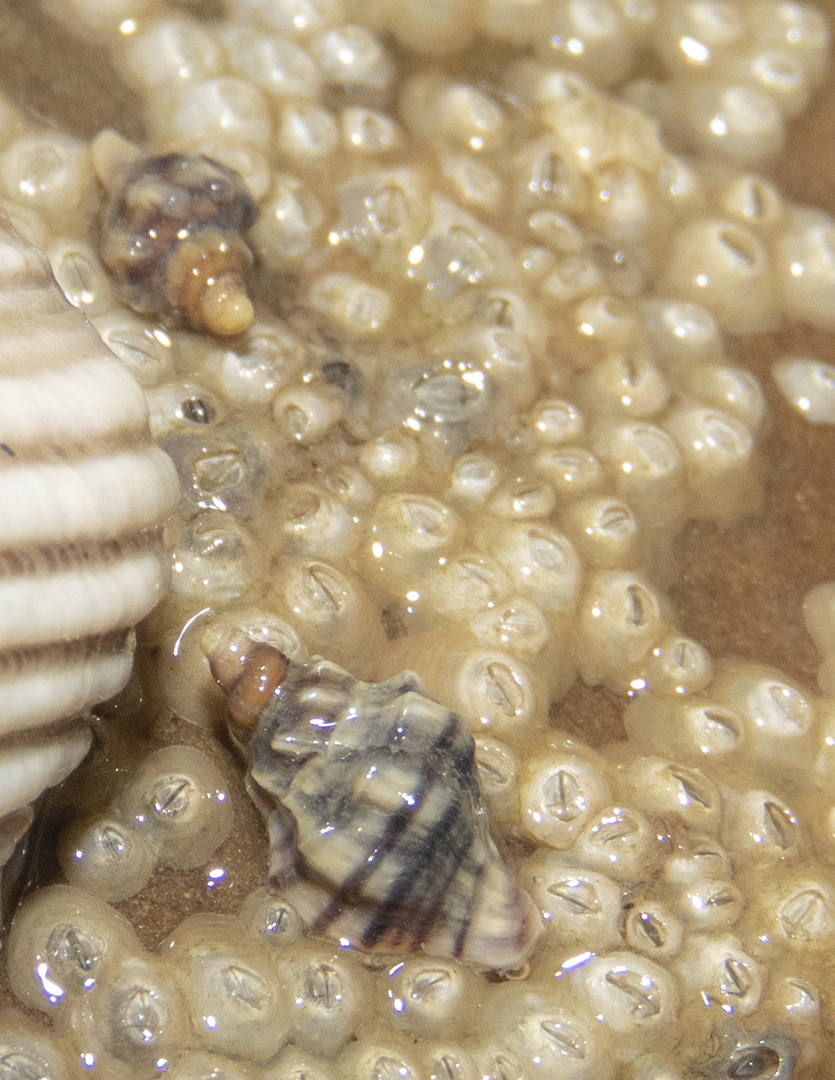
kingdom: Animalia
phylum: Mollusca
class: Gastropoda
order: Neogastropoda
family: Muricidae
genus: Haustrum
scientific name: Haustrum albomarginatum
